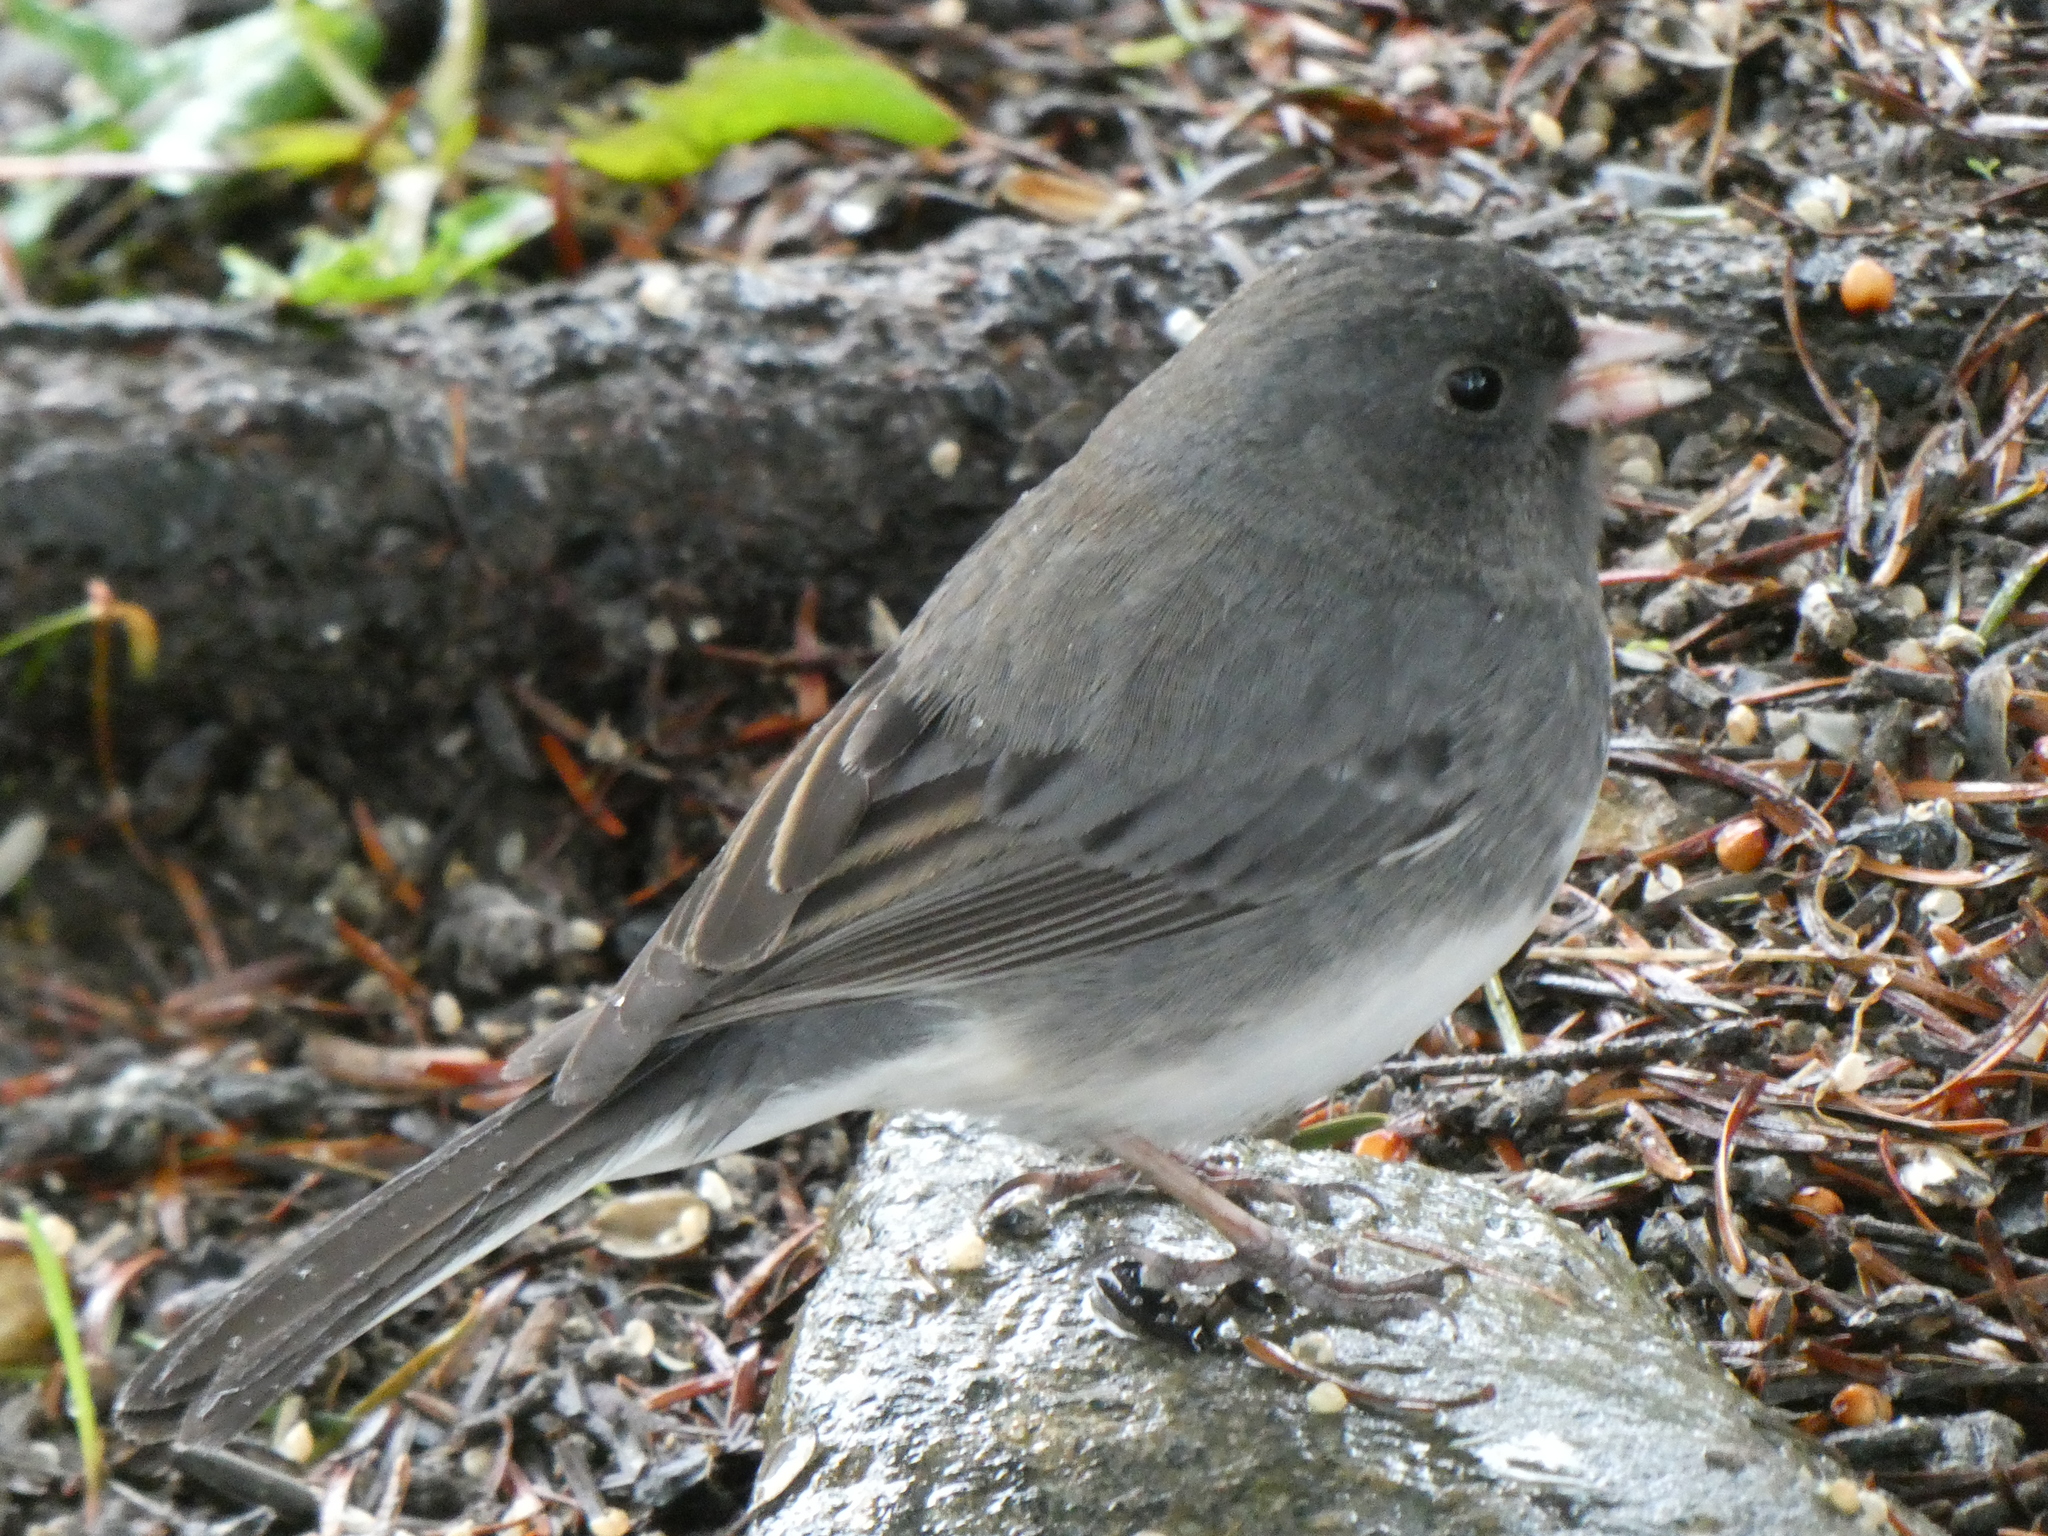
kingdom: Animalia
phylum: Chordata
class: Aves
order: Passeriformes
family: Passerellidae
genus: Junco
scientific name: Junco hyemalis
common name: Dark-eyed junco
